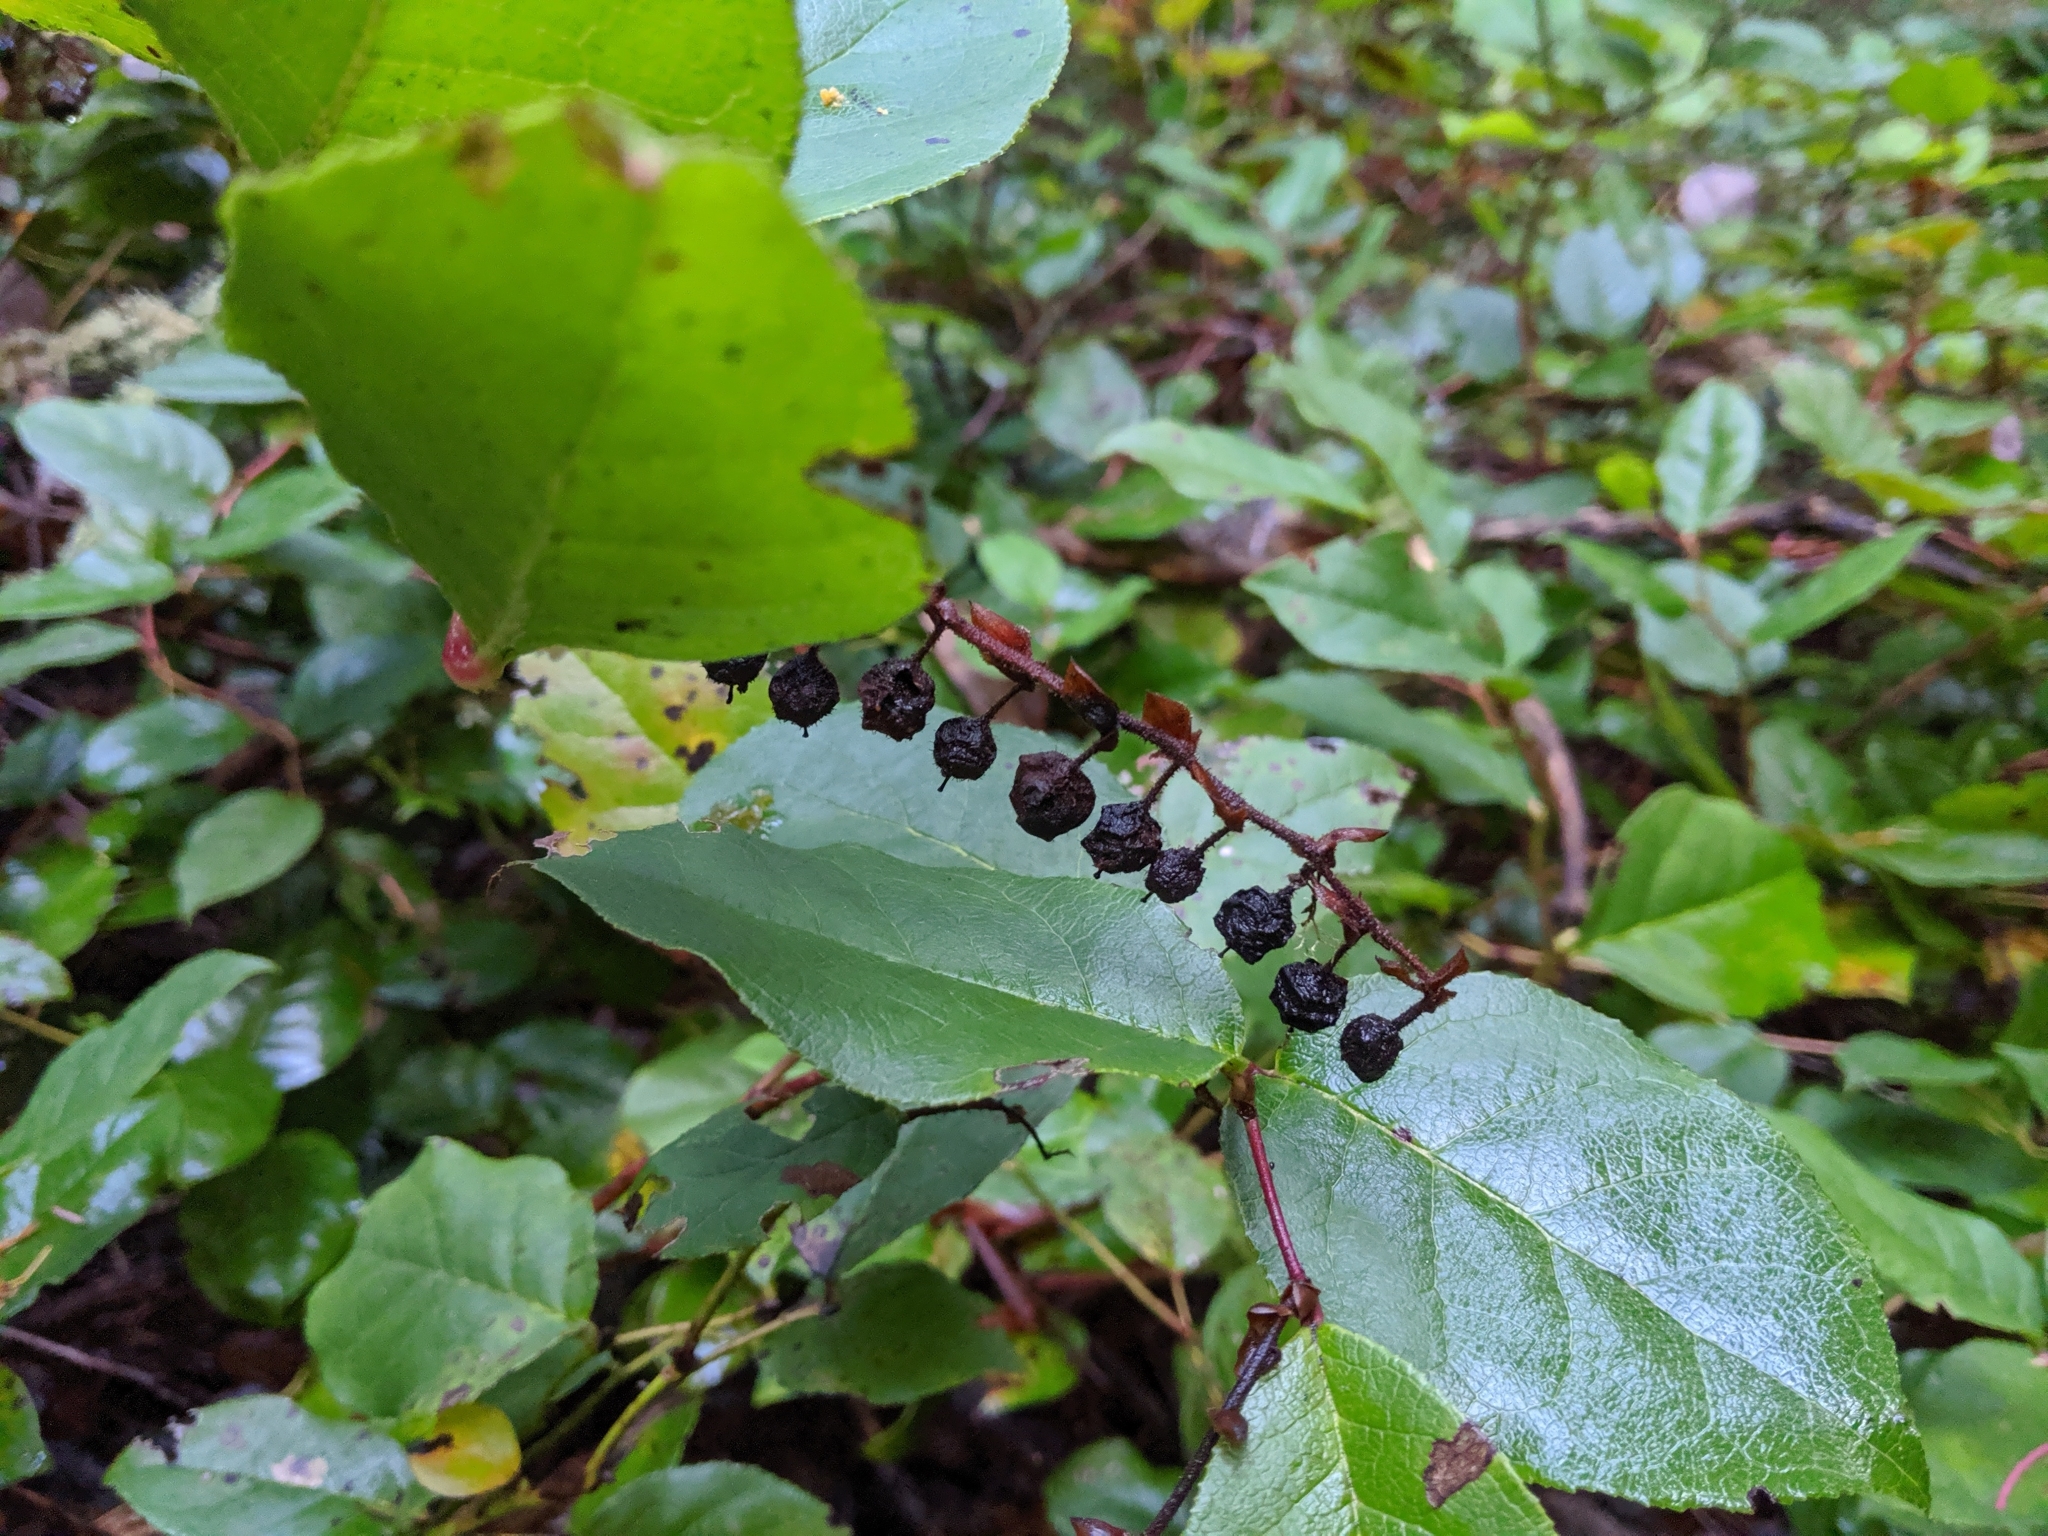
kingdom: Plantae
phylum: Tracheophyta
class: Magnoliopsida
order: Ericales
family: Ericaceae
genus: Gaultheria
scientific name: Gaultheria shallon
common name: Shallon
